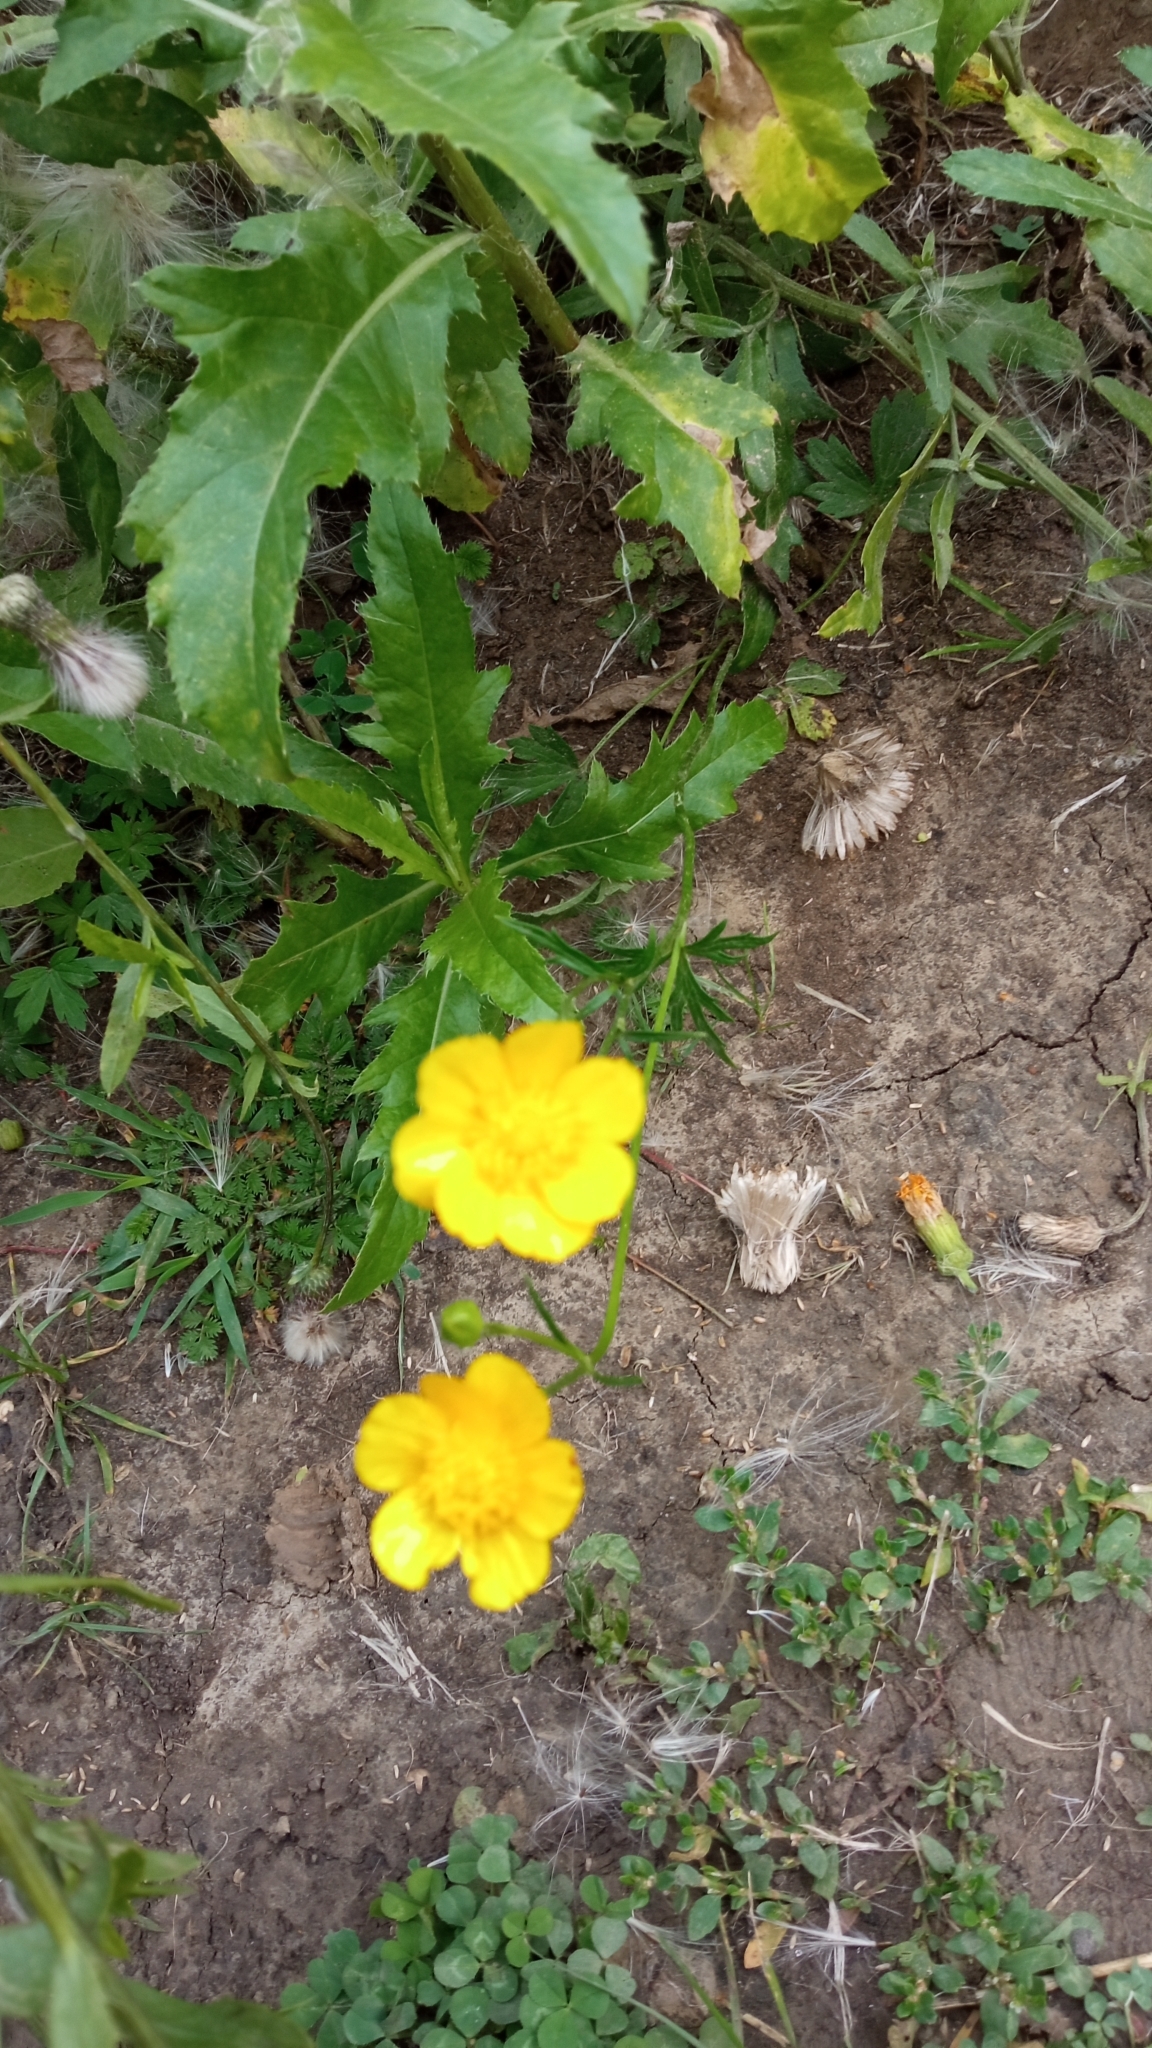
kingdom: Plantae
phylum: Tracheophyta
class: Magnoliopsida
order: Ranunculales
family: Ranunculaceae
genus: Ranunculus
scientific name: Ranunculus polyanthemos
